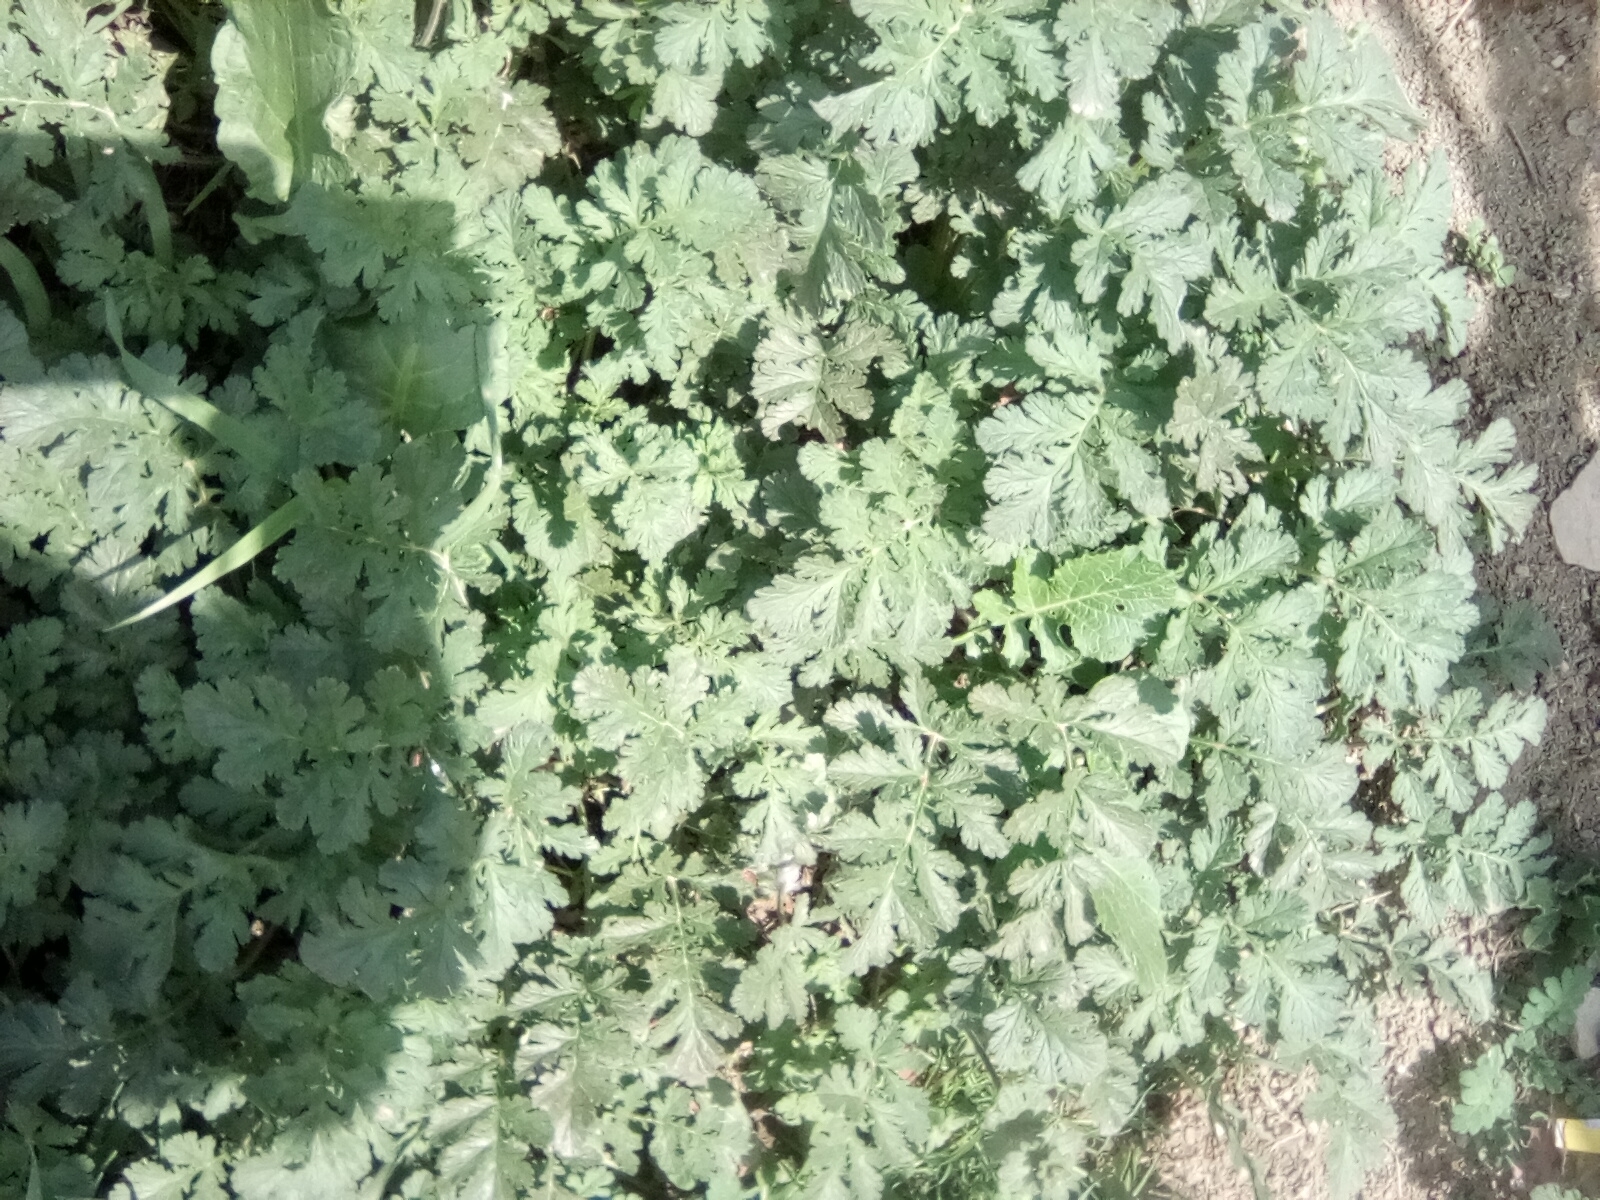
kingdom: Plantae
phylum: Tracheophyta
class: Magnoliopsida
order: Geraniales
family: Geraniaceae
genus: Erodium
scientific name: Erodium ciconium
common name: Common stork's bill
